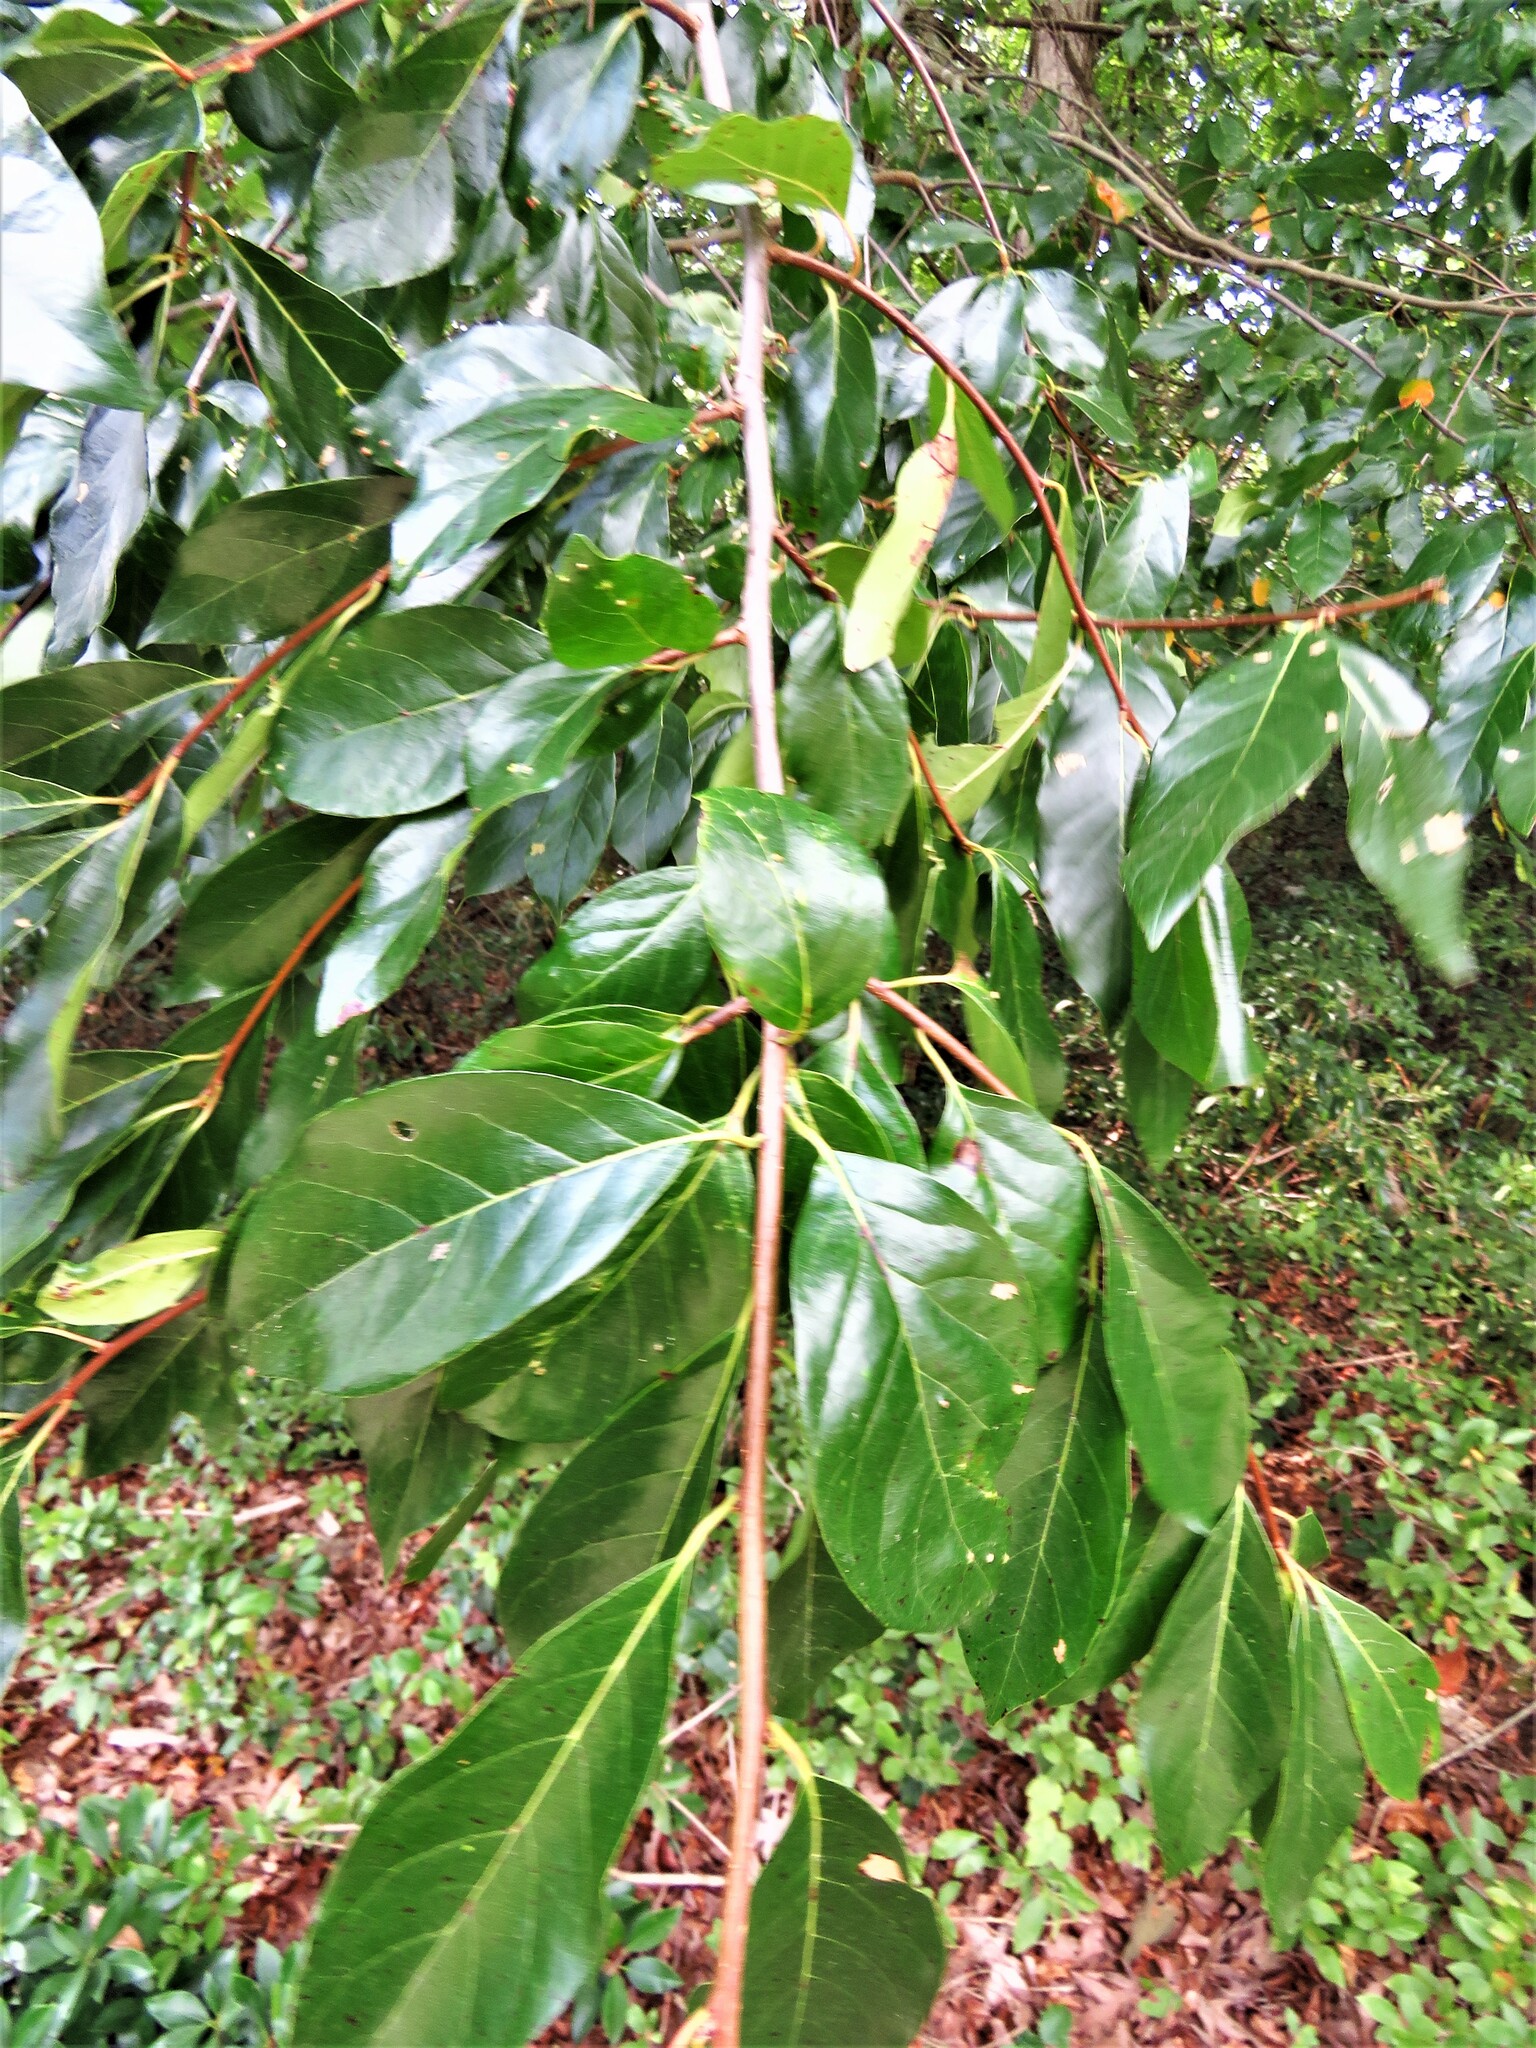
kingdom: Plantae
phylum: Tracheophyta
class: Magnoliopsida
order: Cornales
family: Nyssaceae
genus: Nyssa
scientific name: Nyssa sylvatica
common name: Black tupelo
